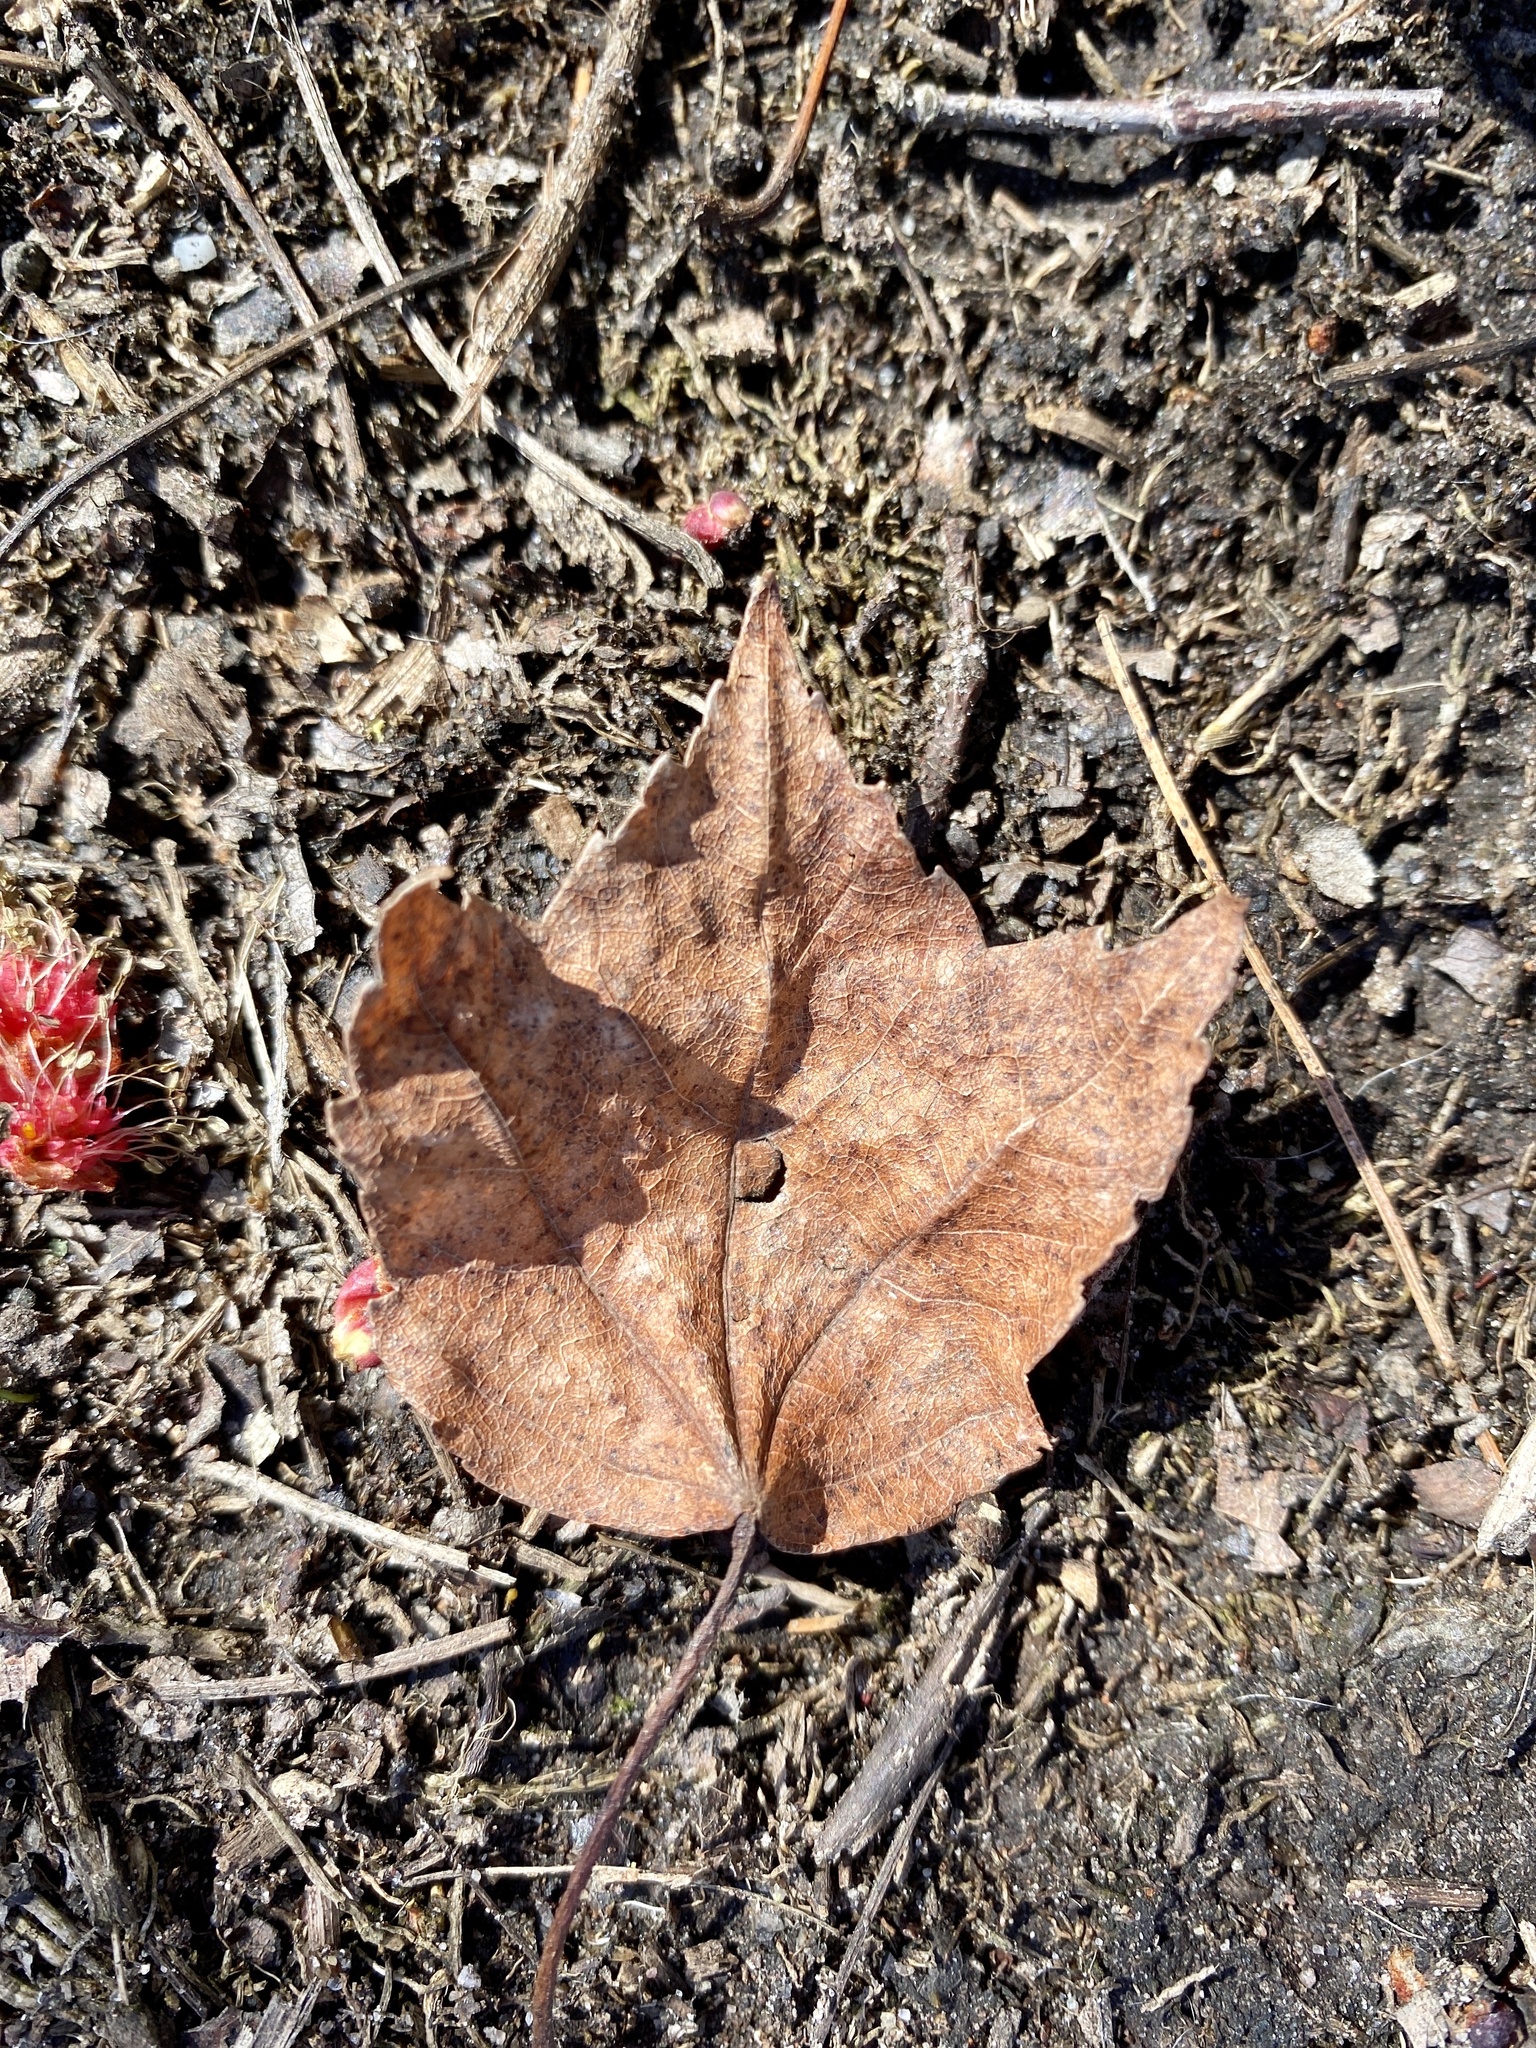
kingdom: Plantae
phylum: Tracheophyta
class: Magnoliopsida
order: Sapindales
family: Sapindaceae
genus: Acer
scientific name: Acer rubrum
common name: Red maple
